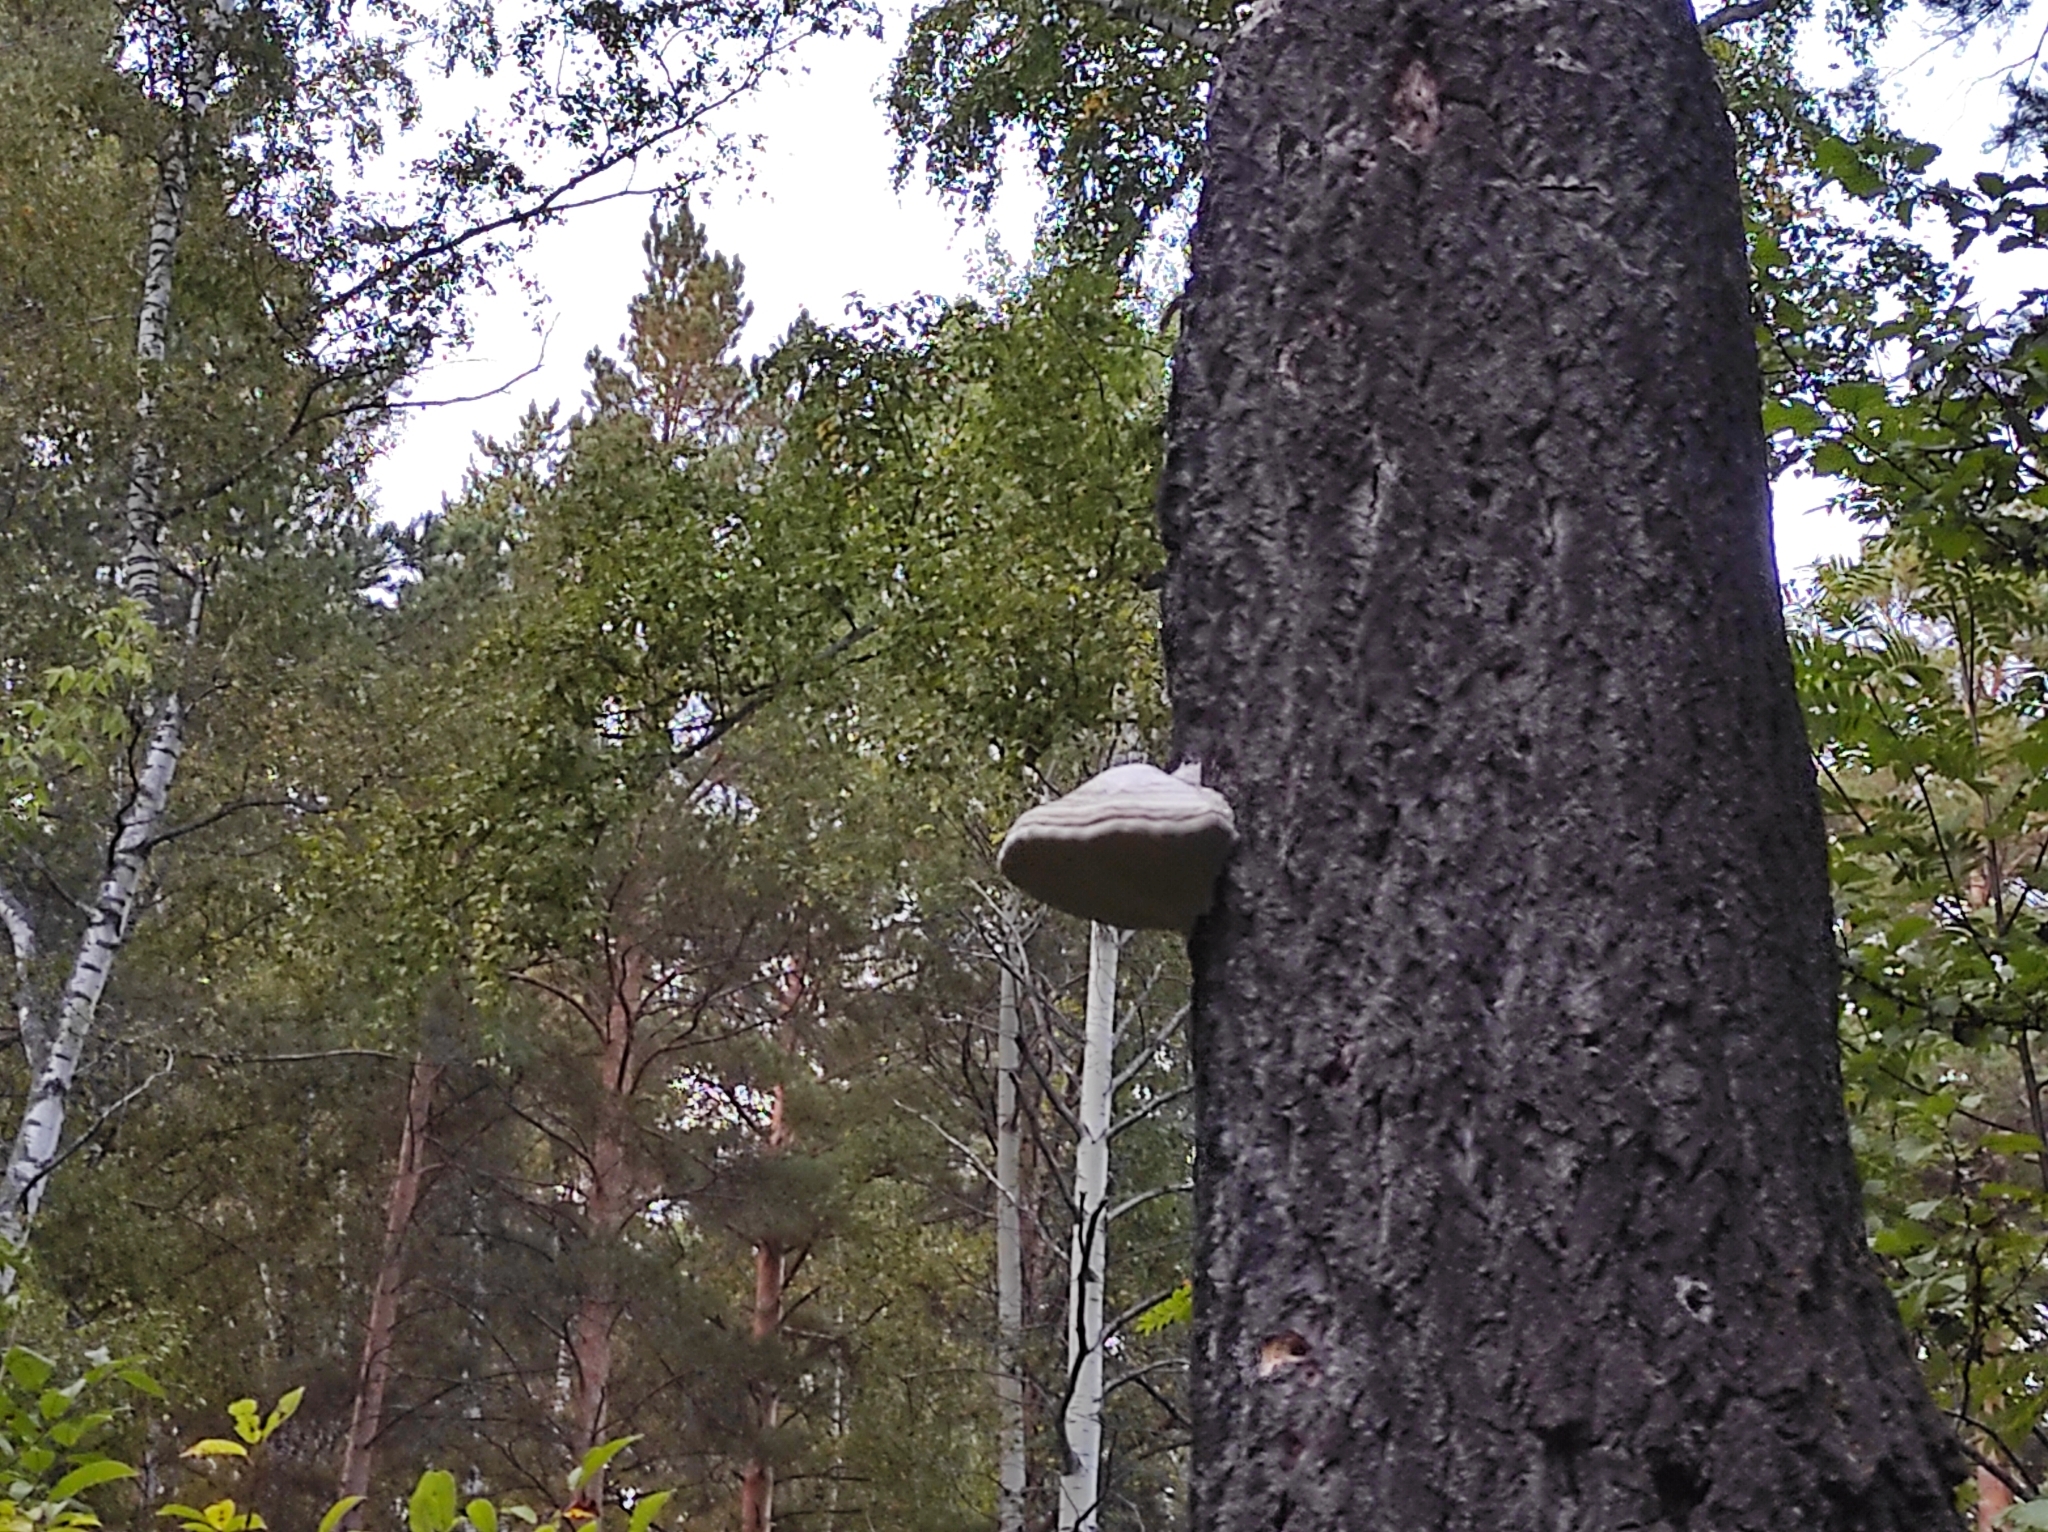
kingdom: Fungi
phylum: Basidiomycota
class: Agaricomycetes
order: Polyporales
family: Polyporaceae
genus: Fomes
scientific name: Fomes fomentarius
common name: Hoof fungus
